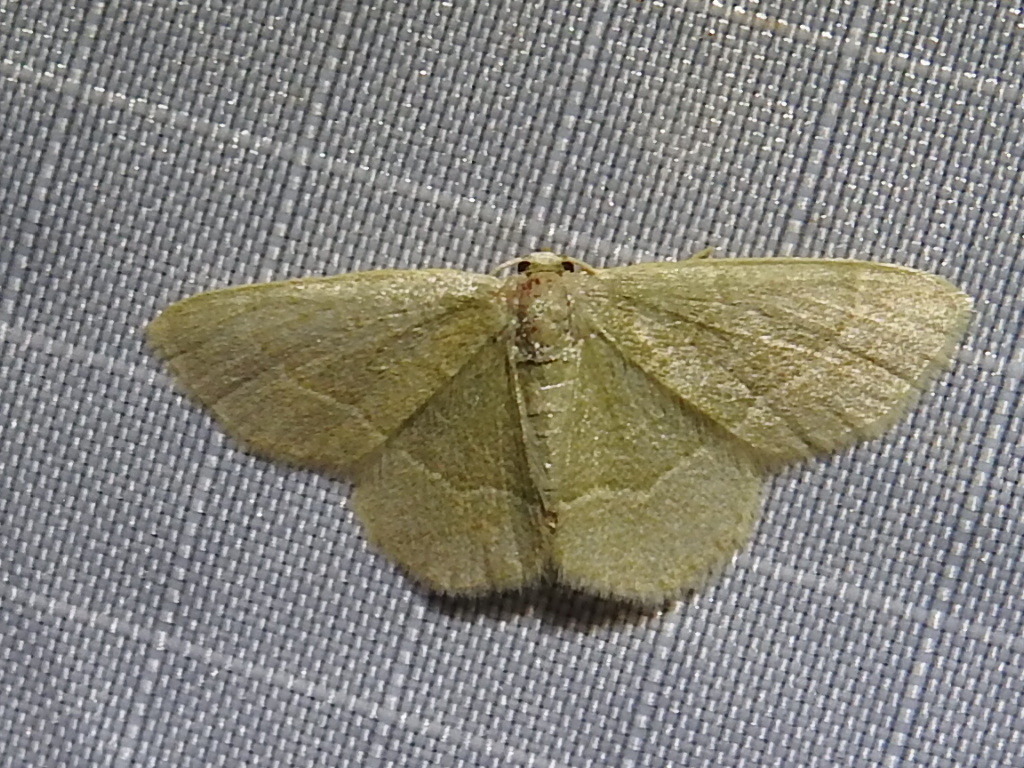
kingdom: Animalia
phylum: Arthropoda
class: Insecta
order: Lepidoptera
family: Geometridae
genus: Chlorochlamys
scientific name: Chlorochlamys chloroleucaria
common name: Blackberry looper
